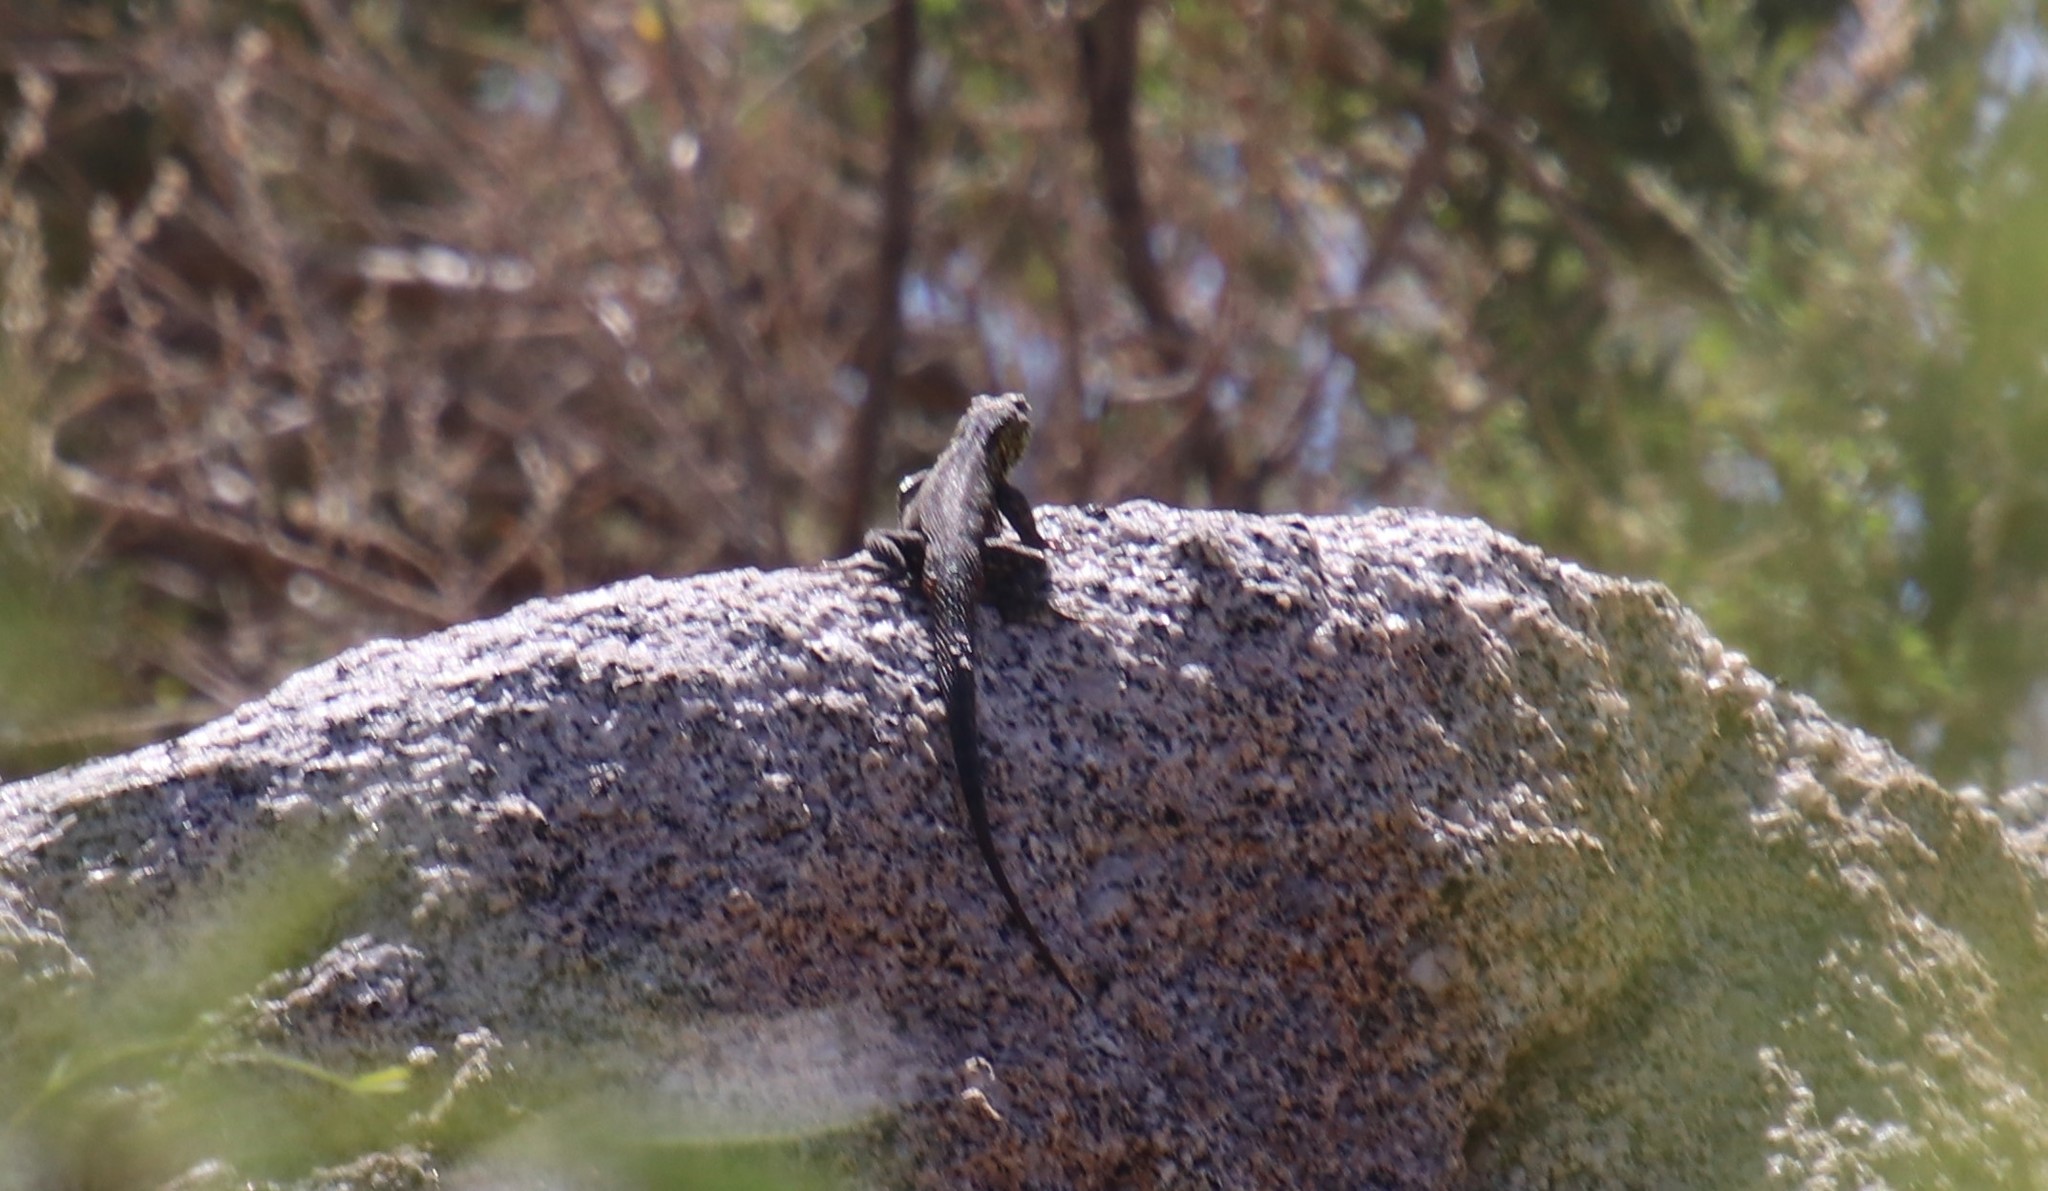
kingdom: Animalia
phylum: Chordata
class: Squamata
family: Phrynosomatidae
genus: Sceloporus
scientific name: Sceloporus occidentalis
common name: Western fence lizard
